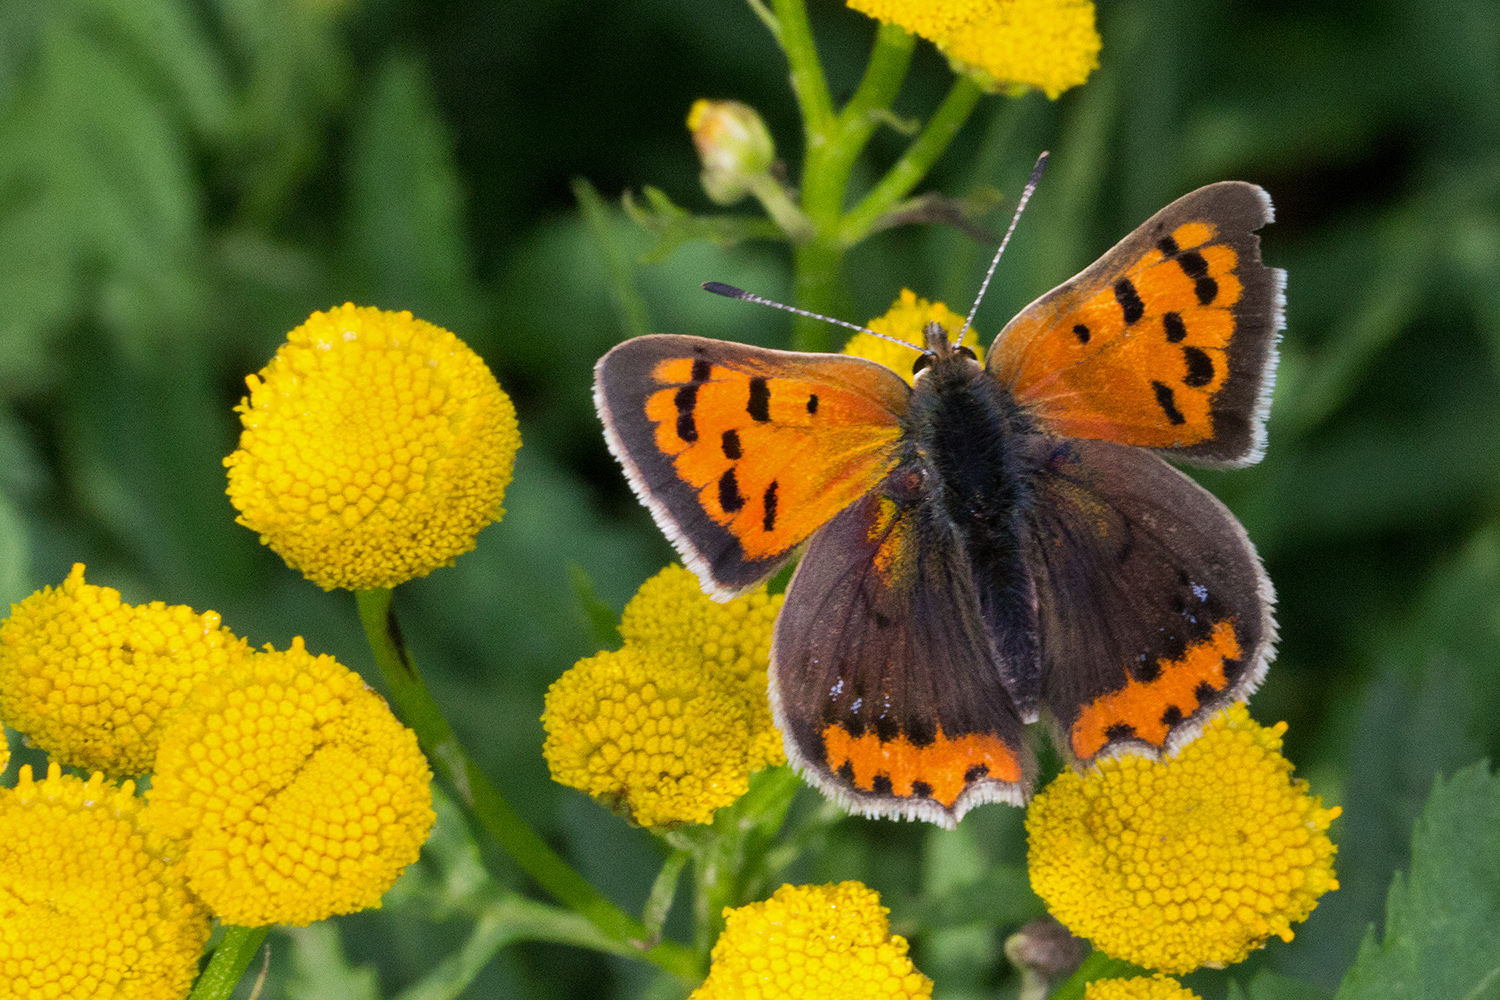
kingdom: Animalia
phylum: Arthropoda
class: Insecta
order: Lepidoptera
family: Lycaenidae
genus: Lycaena
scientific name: Lycaena phlaeas
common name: Small copper
